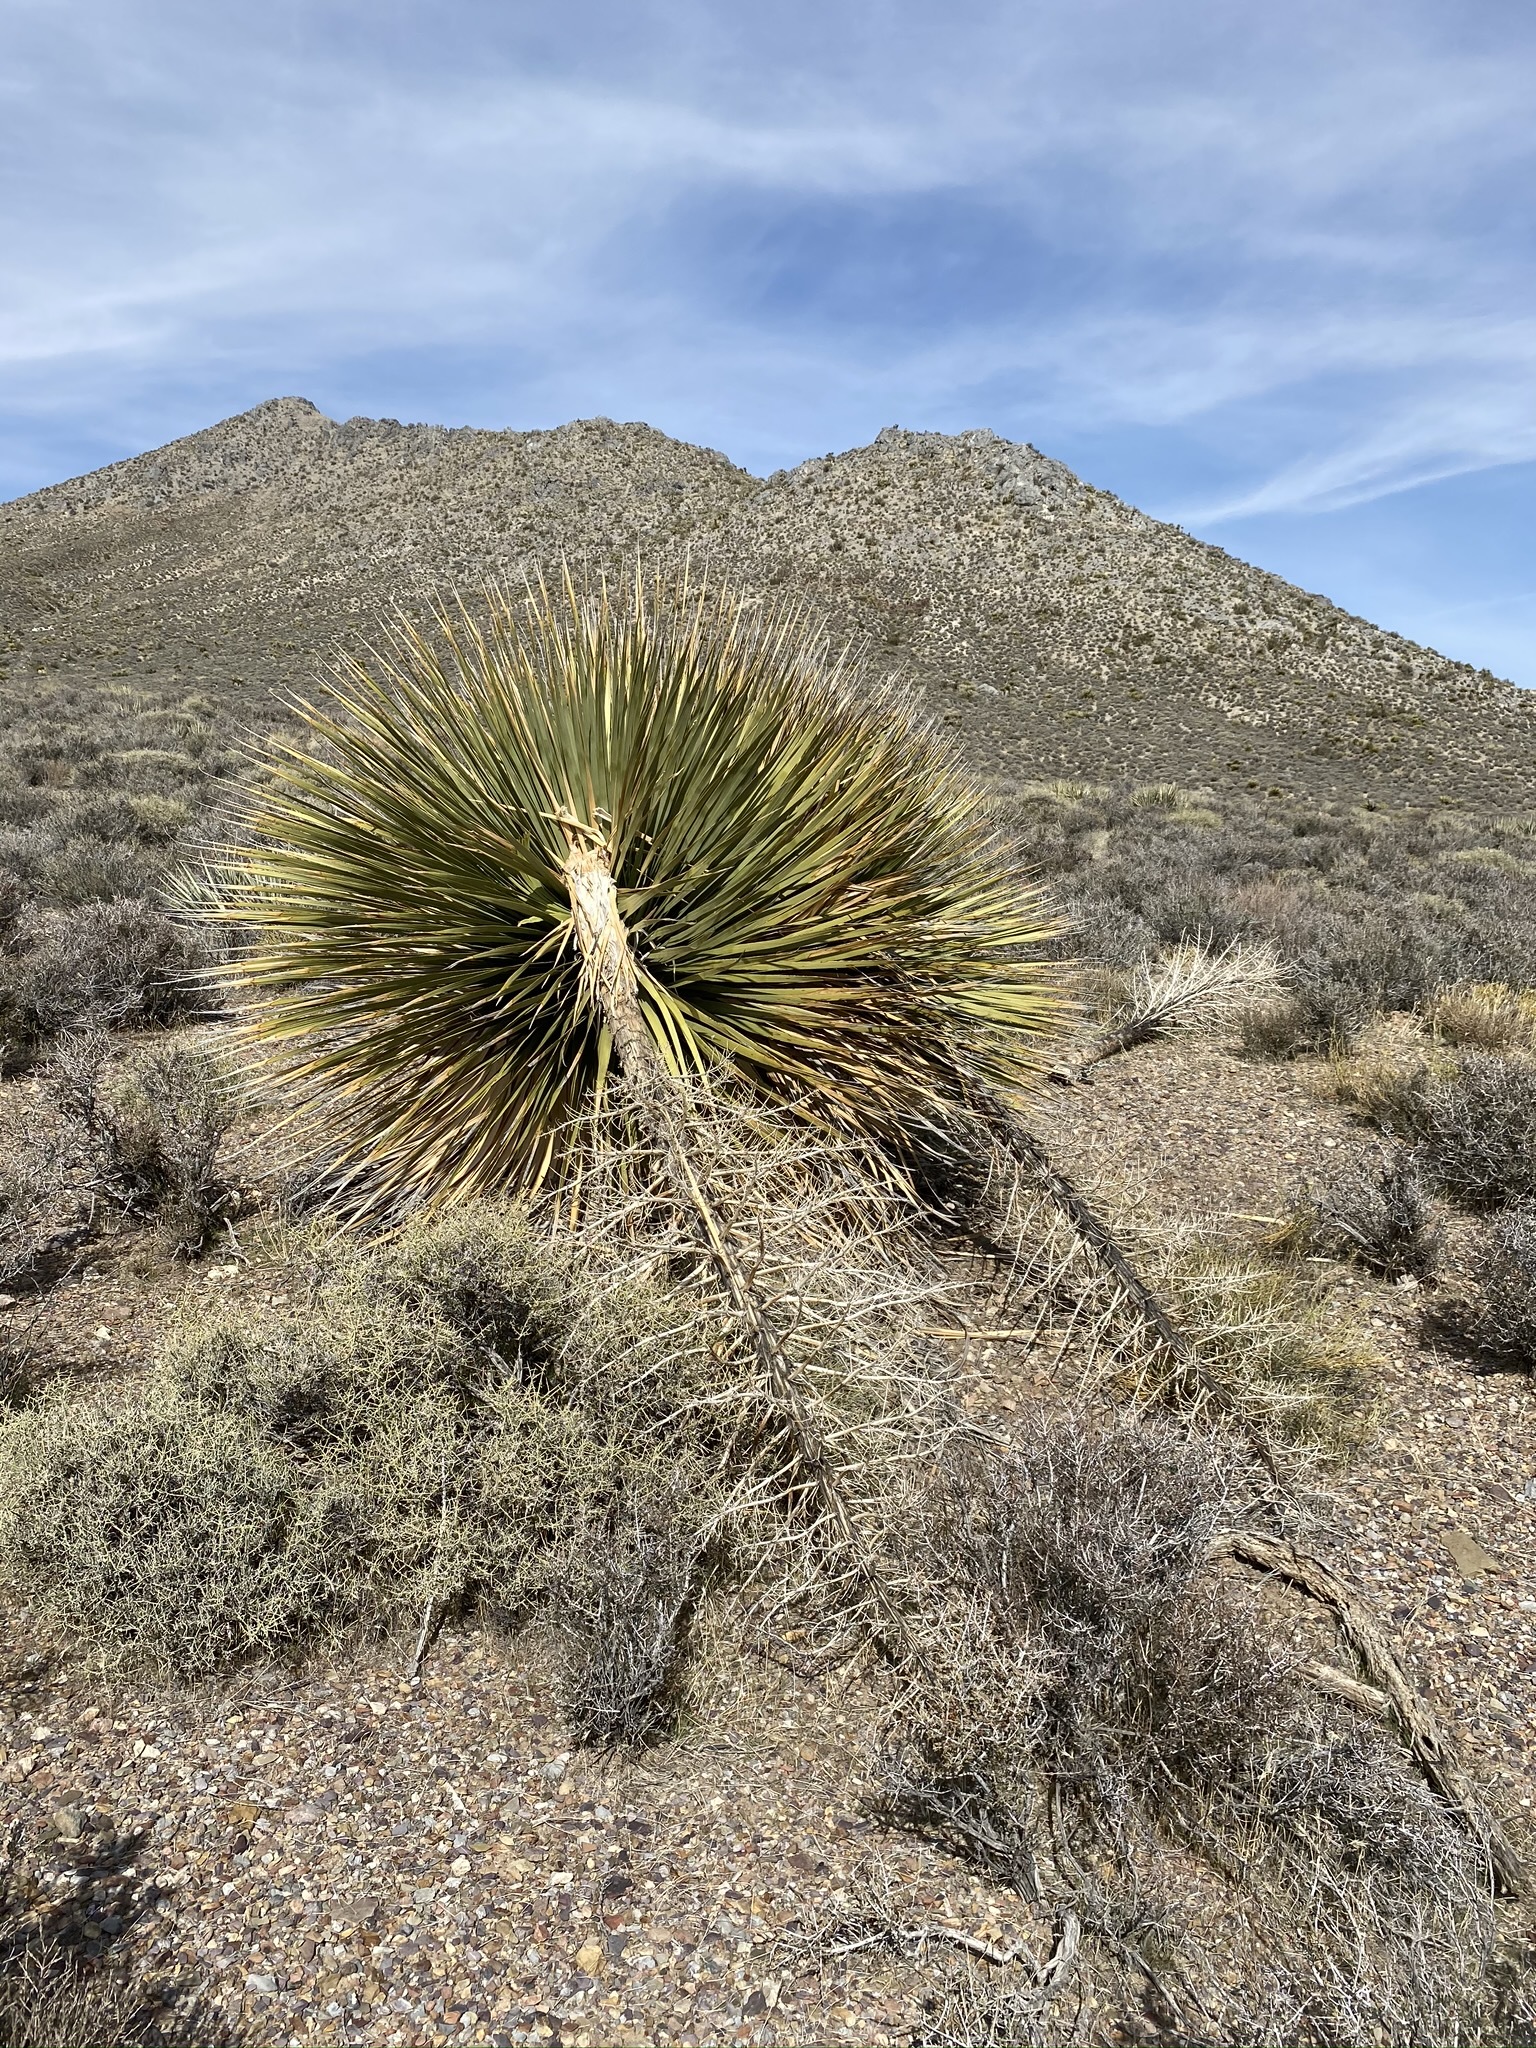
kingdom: Plantae
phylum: Tracheophyta
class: Liliopsida
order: Asparagales
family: Asparagaceae
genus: Nolina
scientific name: Nolina parryi
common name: Parry nolina
